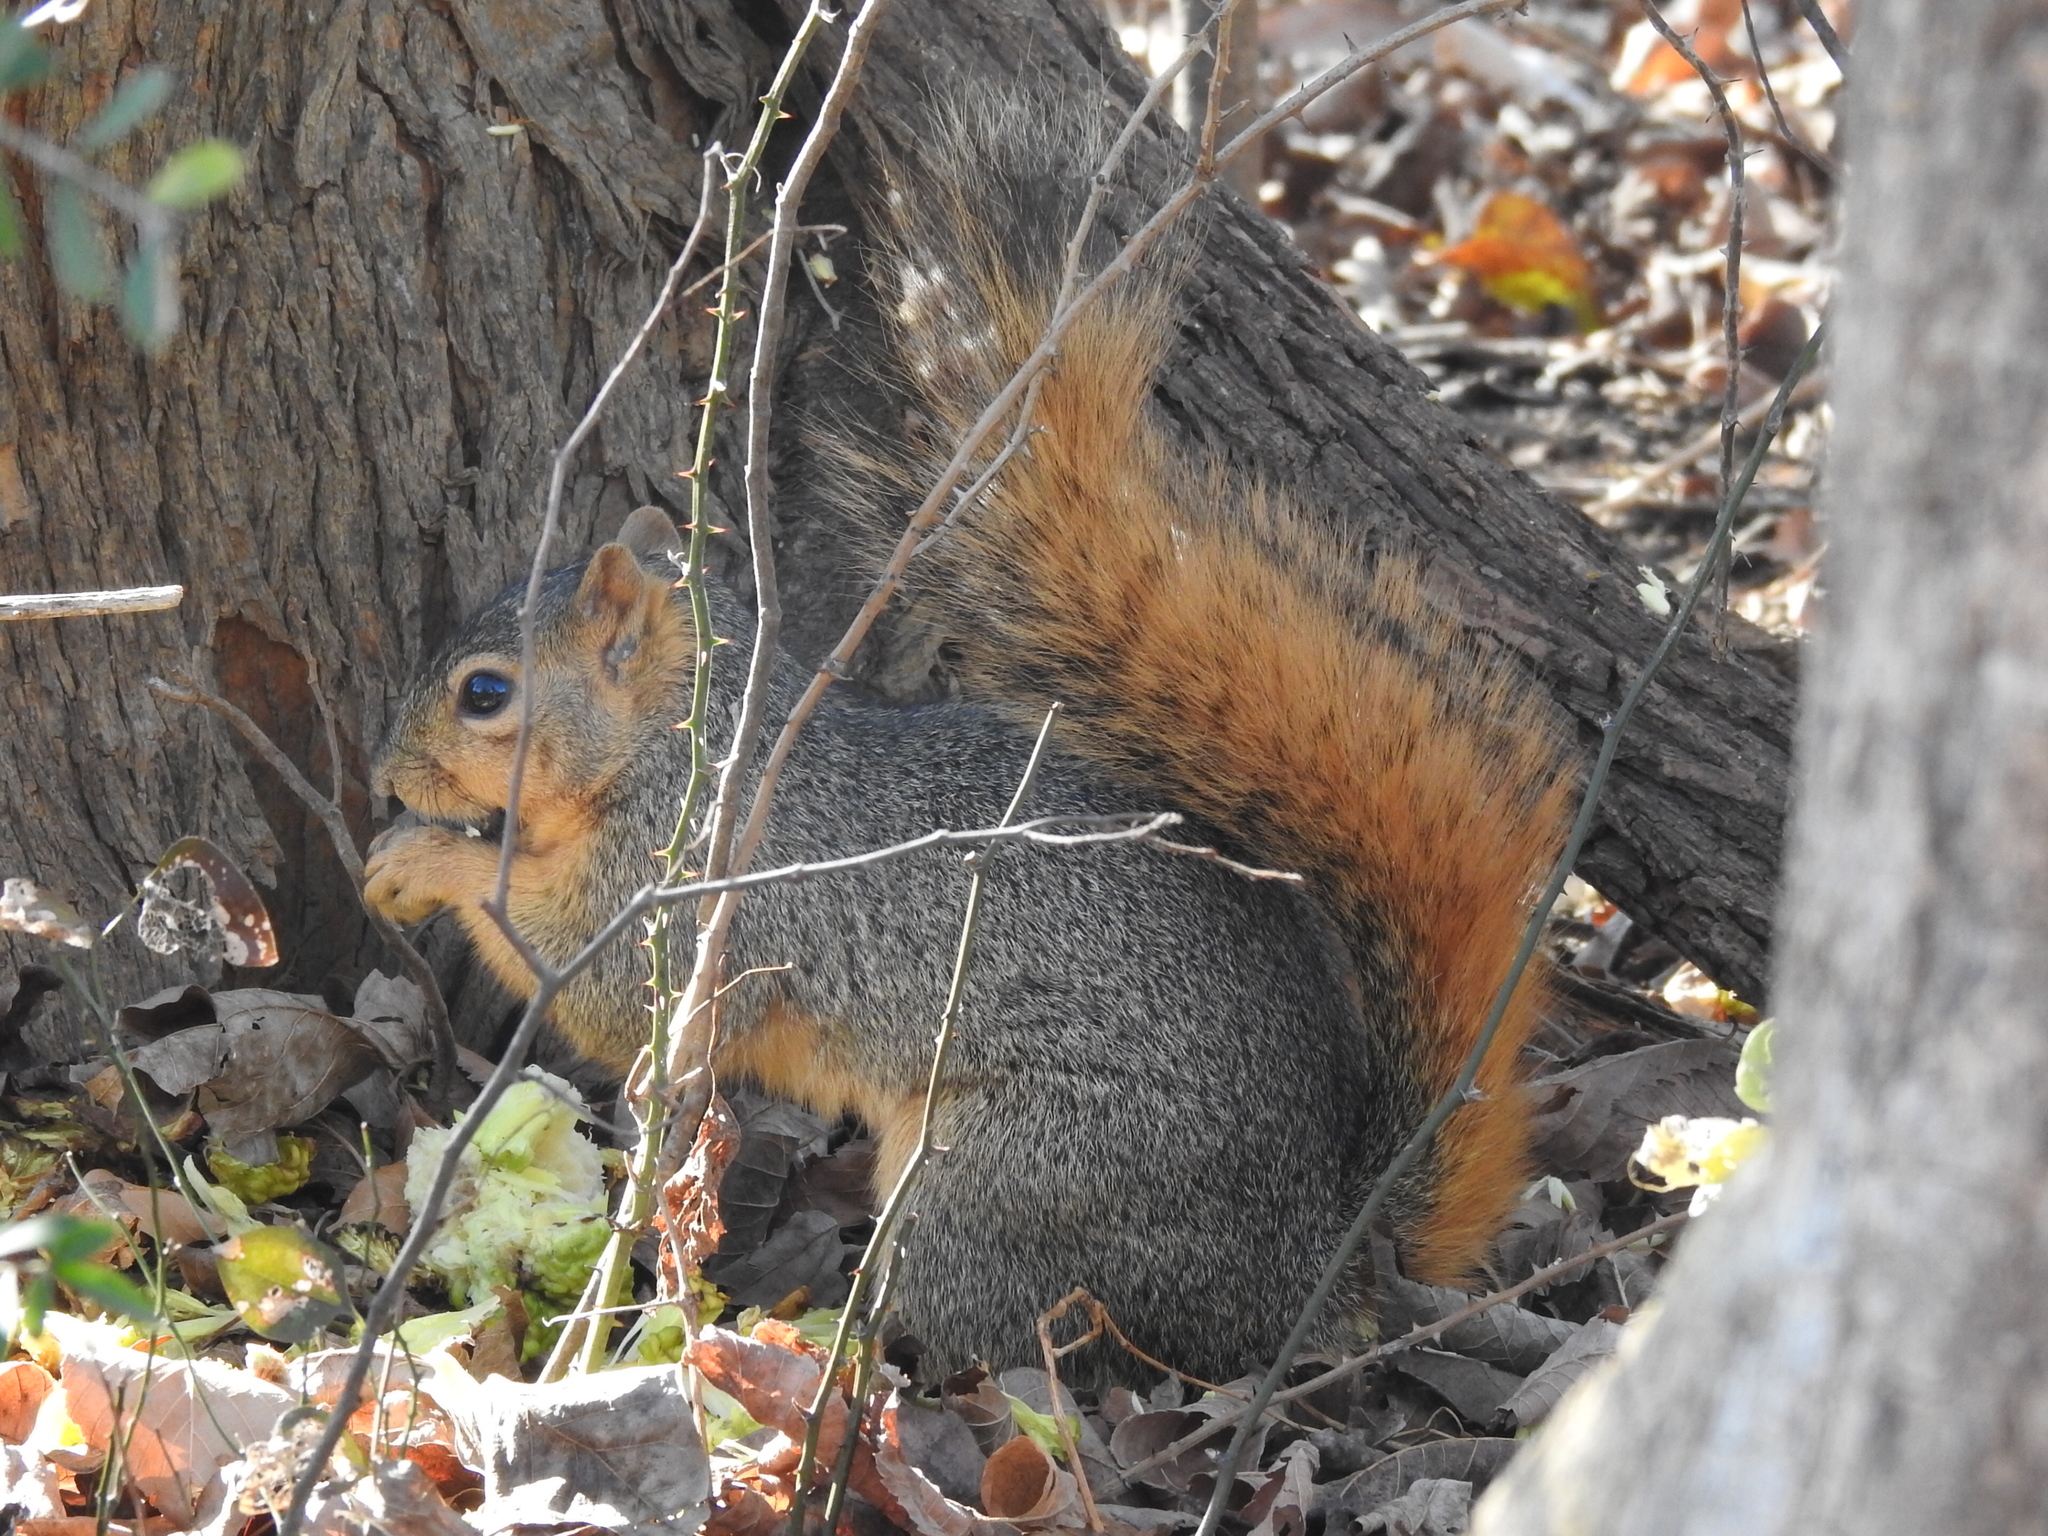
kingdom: Animalia
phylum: Chordata
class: Mammalia
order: Rodentia
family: Sciuridae
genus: Sciurus
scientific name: Sciurus niger
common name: Fox squirrel
